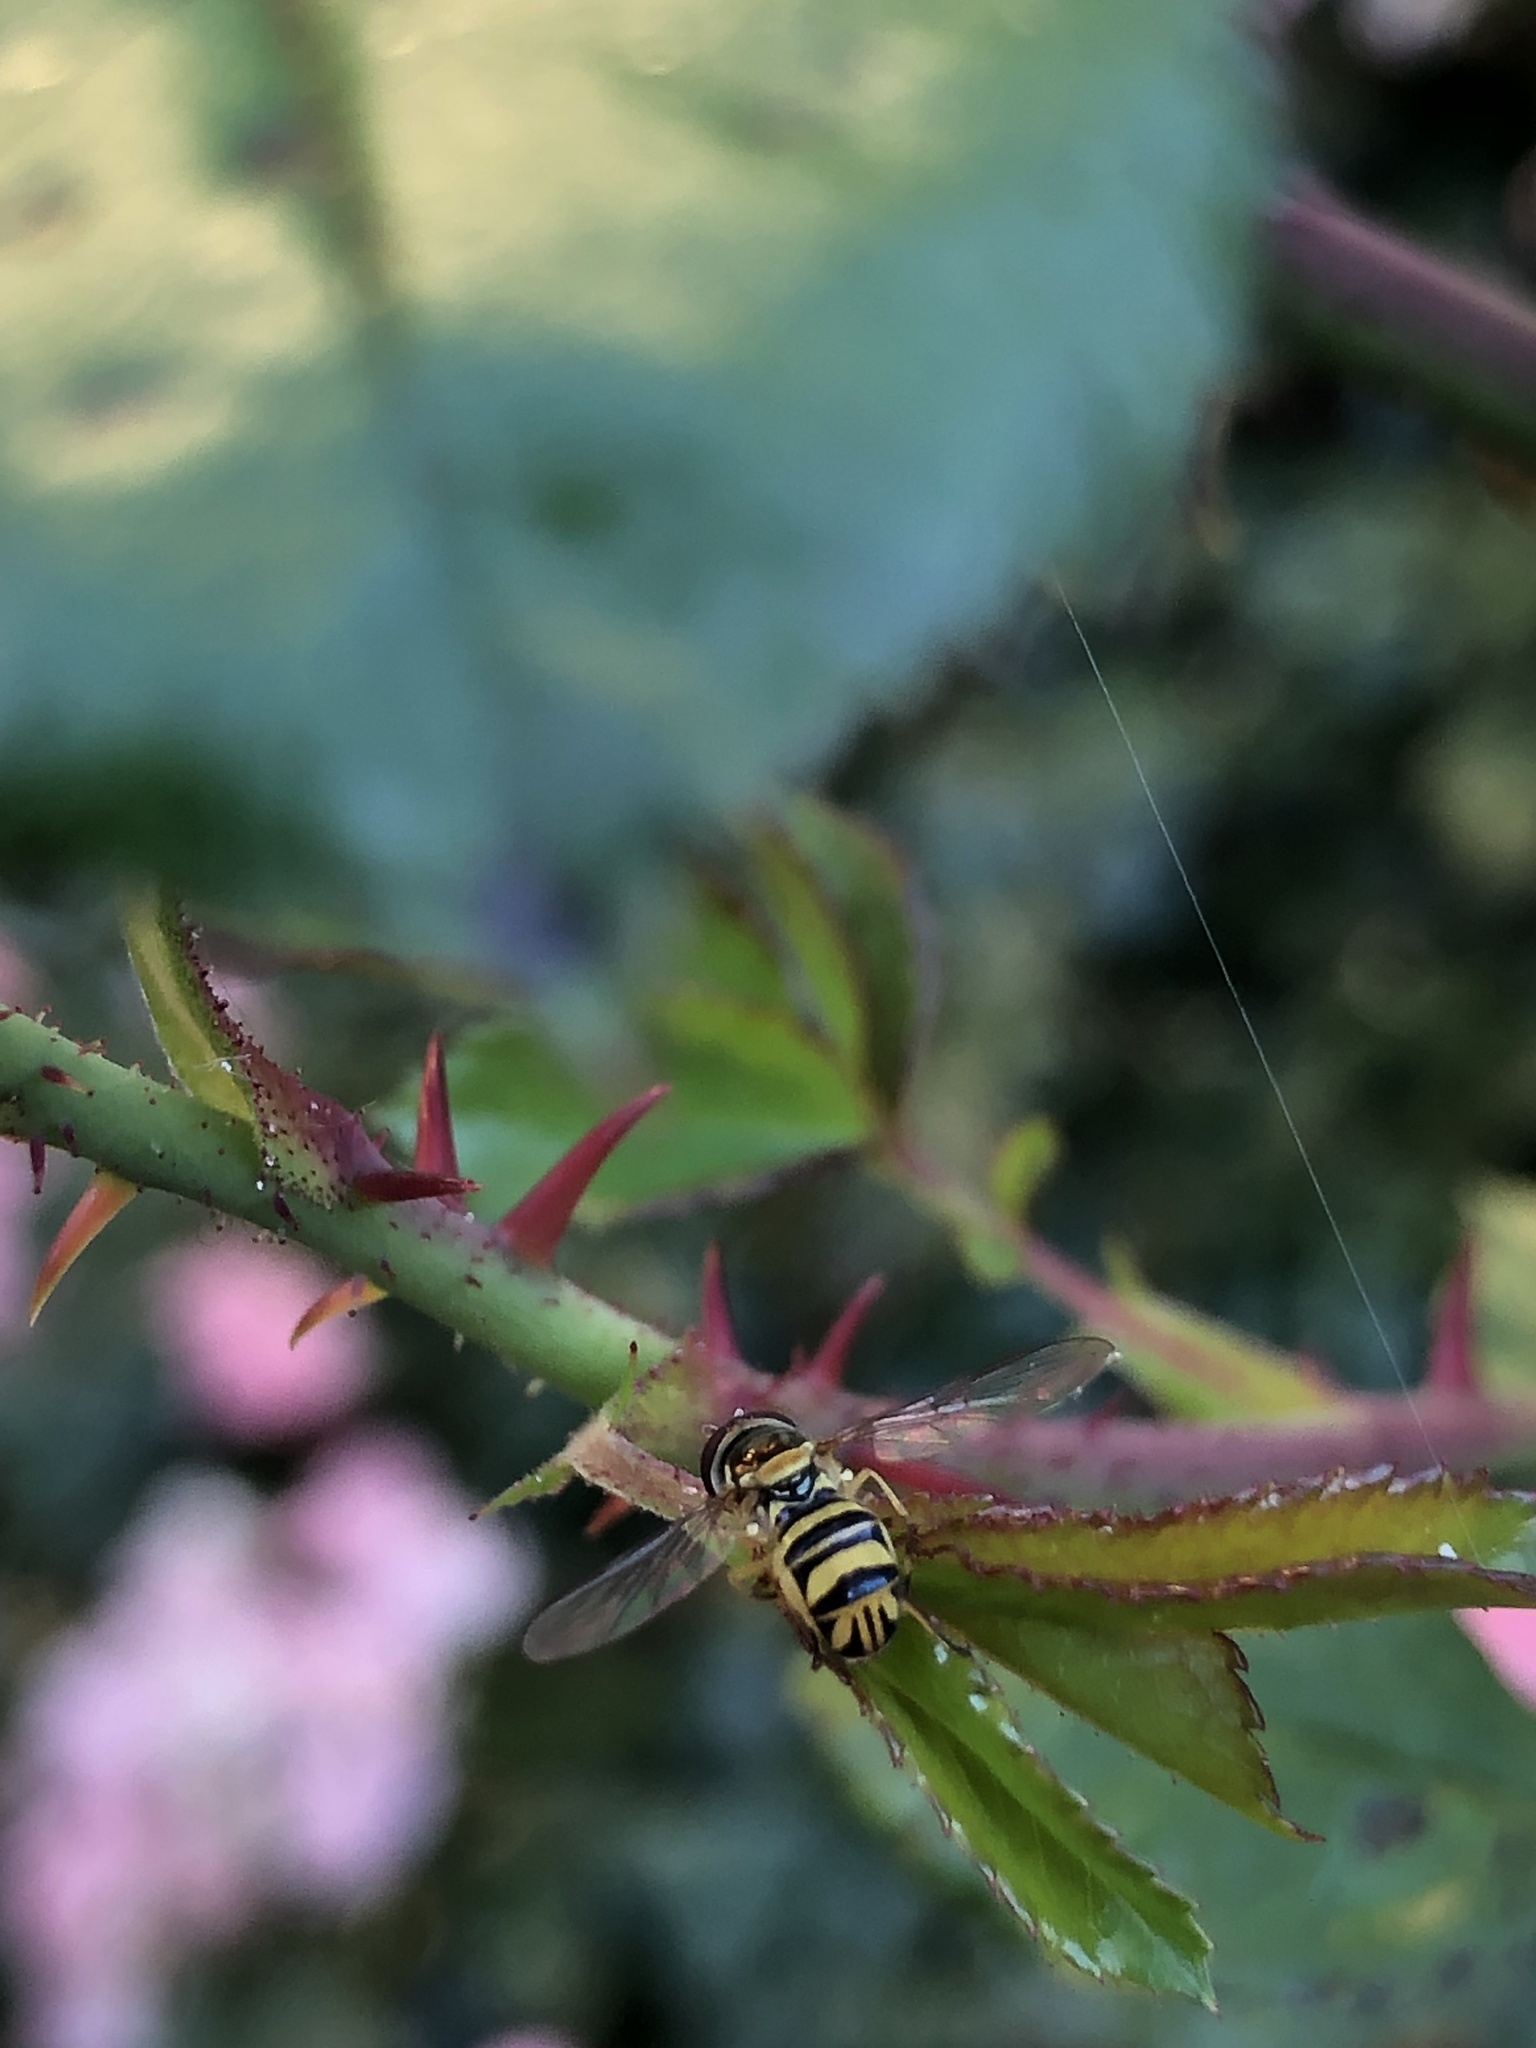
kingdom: Animalia
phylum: Arthropoda
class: Insecta
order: Diptera
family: Syrphidae
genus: Allograpta
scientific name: Allograpta obliqua
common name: Common oblique syrphid
